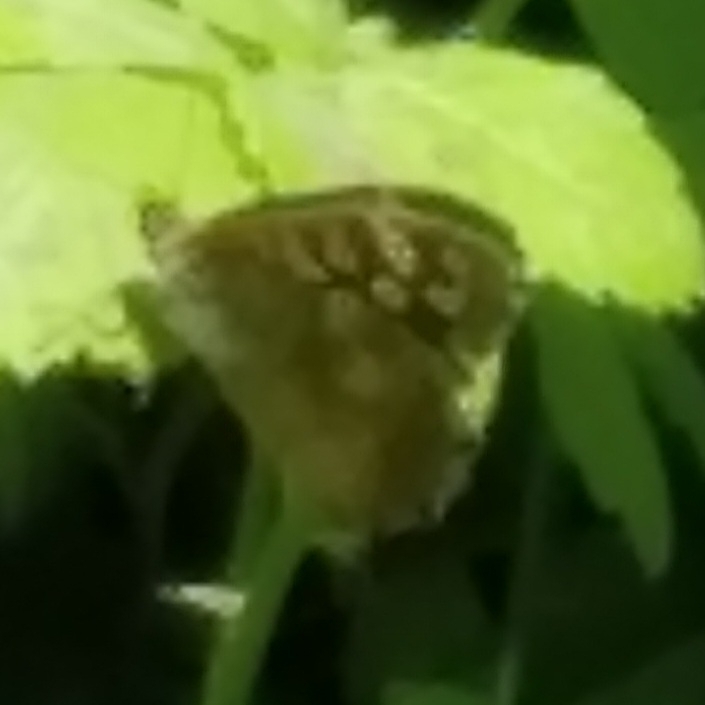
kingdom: Animalia
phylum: Arthropoda
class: Insecta
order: Lepidoptera
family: Nymphalidae
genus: Pararge
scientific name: Pararge aegeria
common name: Speckled wood
